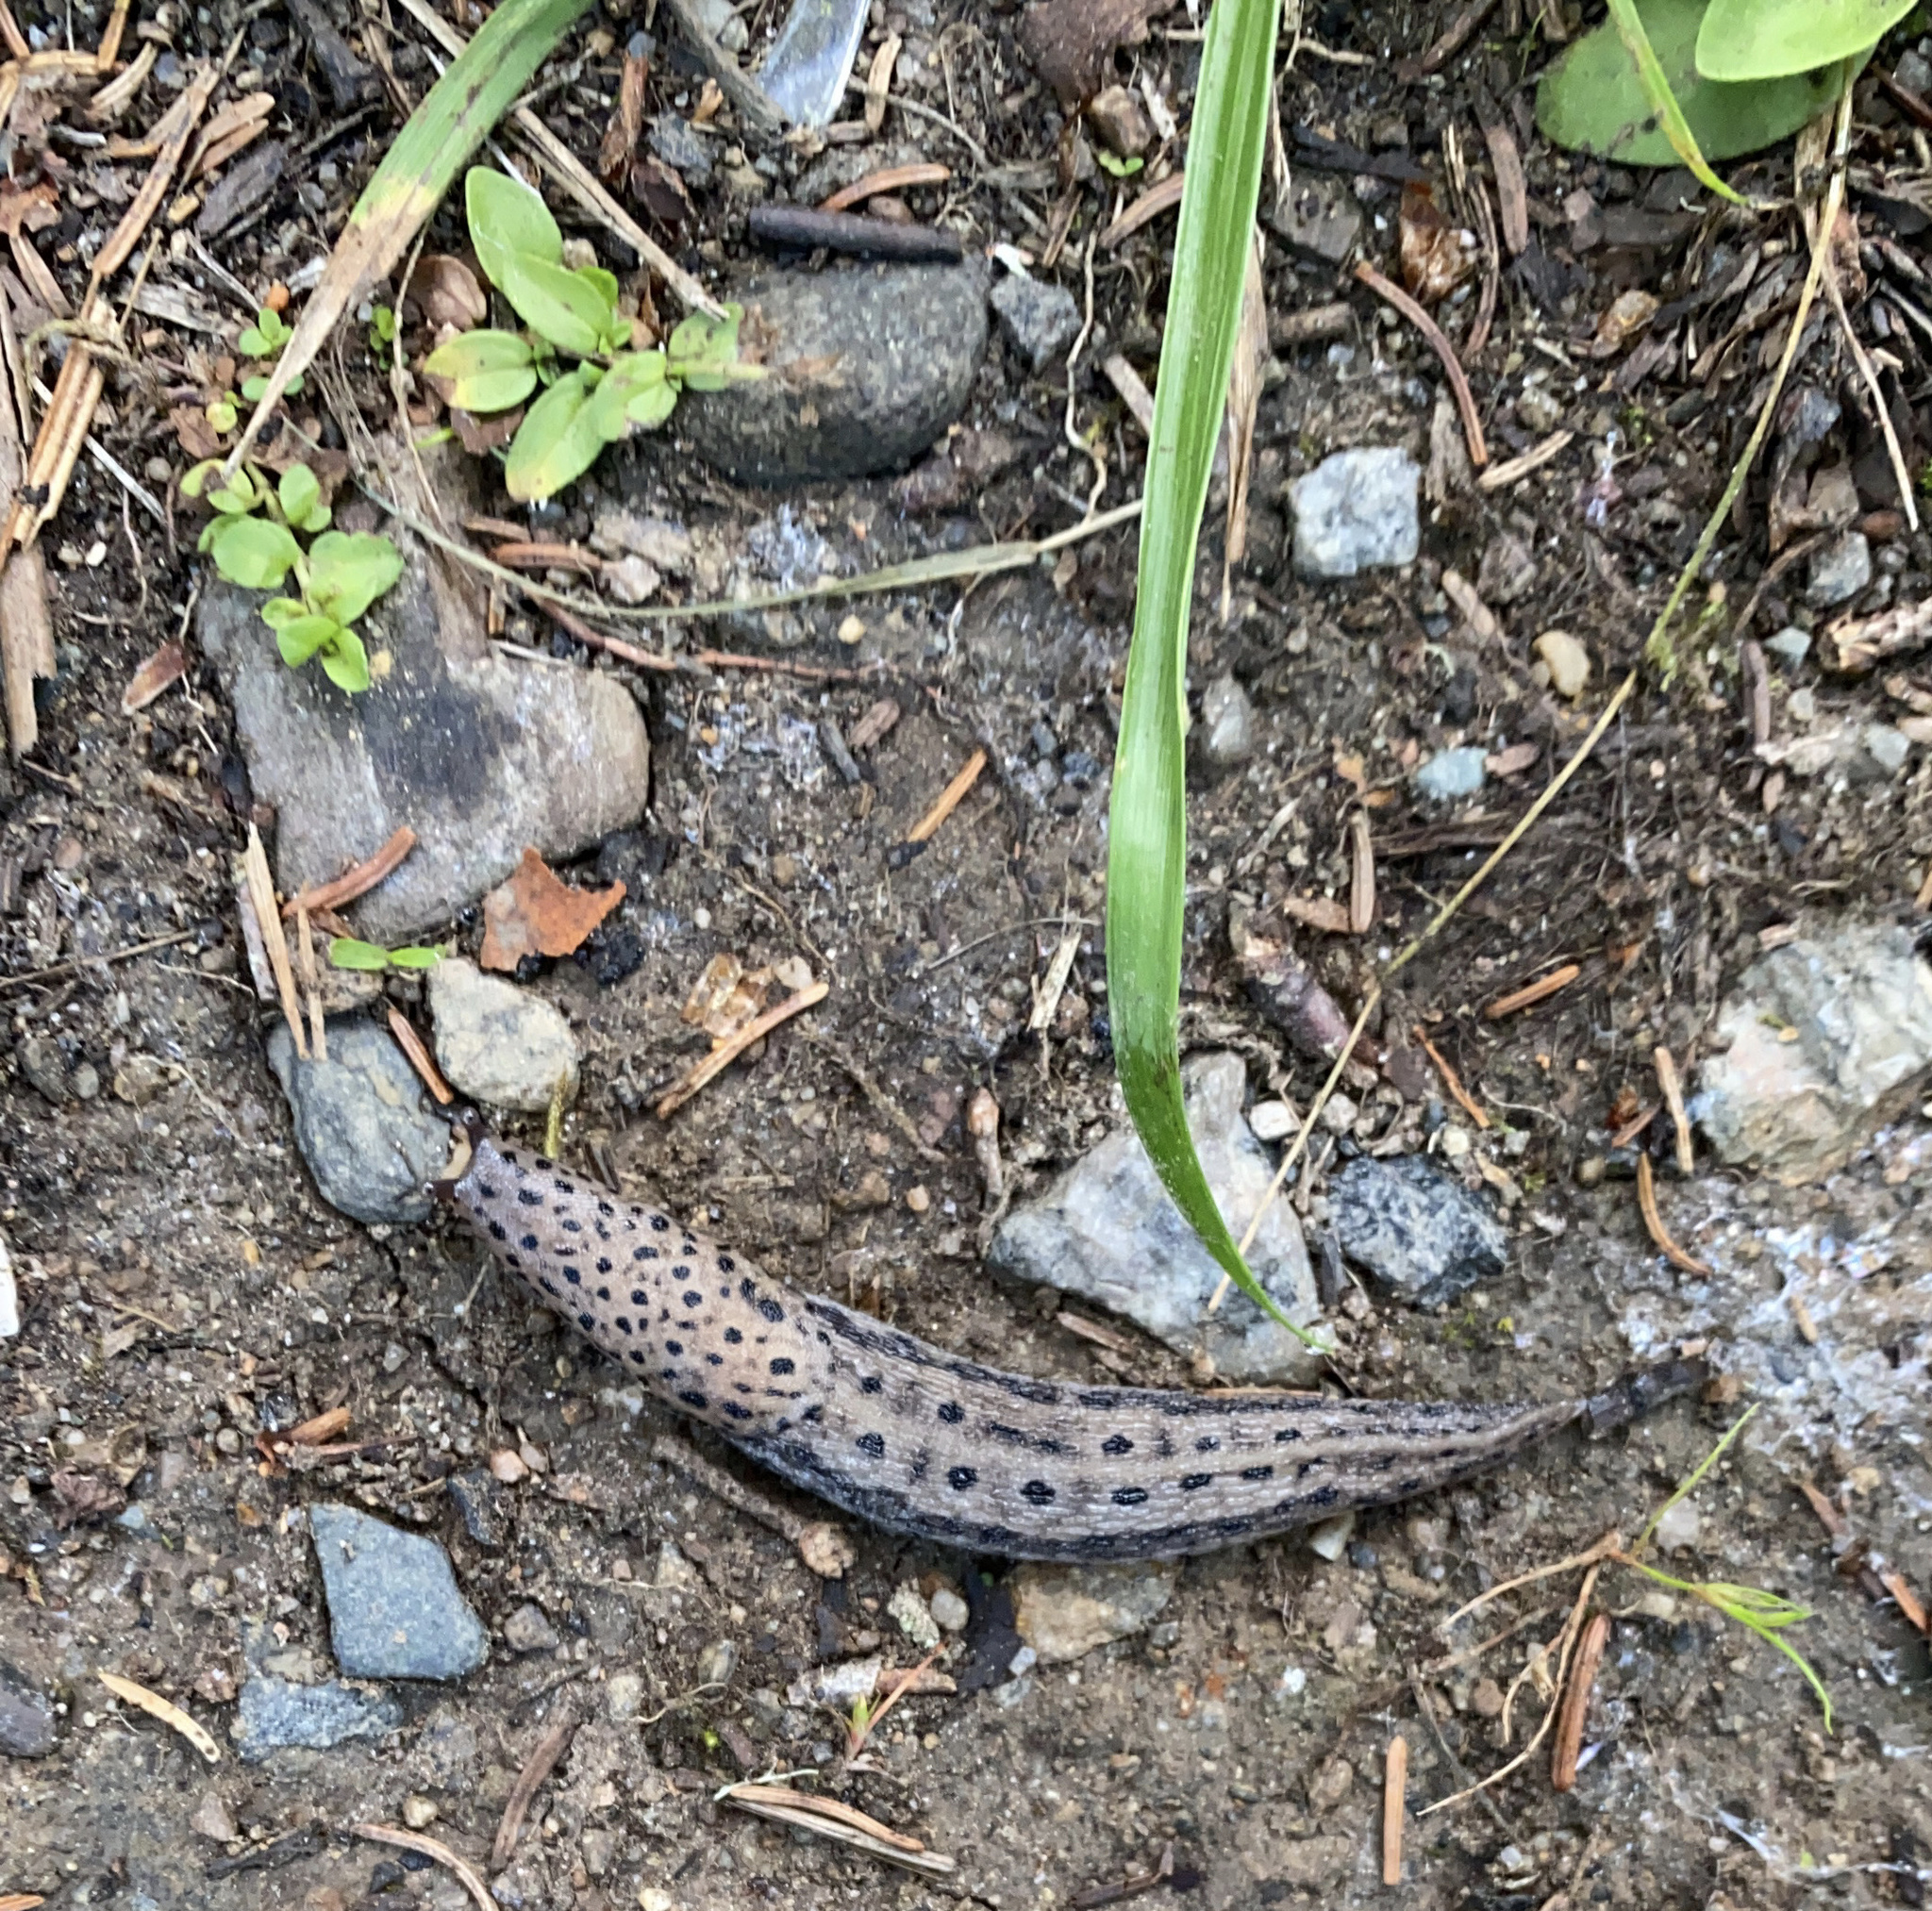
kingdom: Animalia
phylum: Mollusca
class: Gastropoda
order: Stylommatophora
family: Limacidae
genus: Limax
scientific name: Limax maximus
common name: Great grey slug
